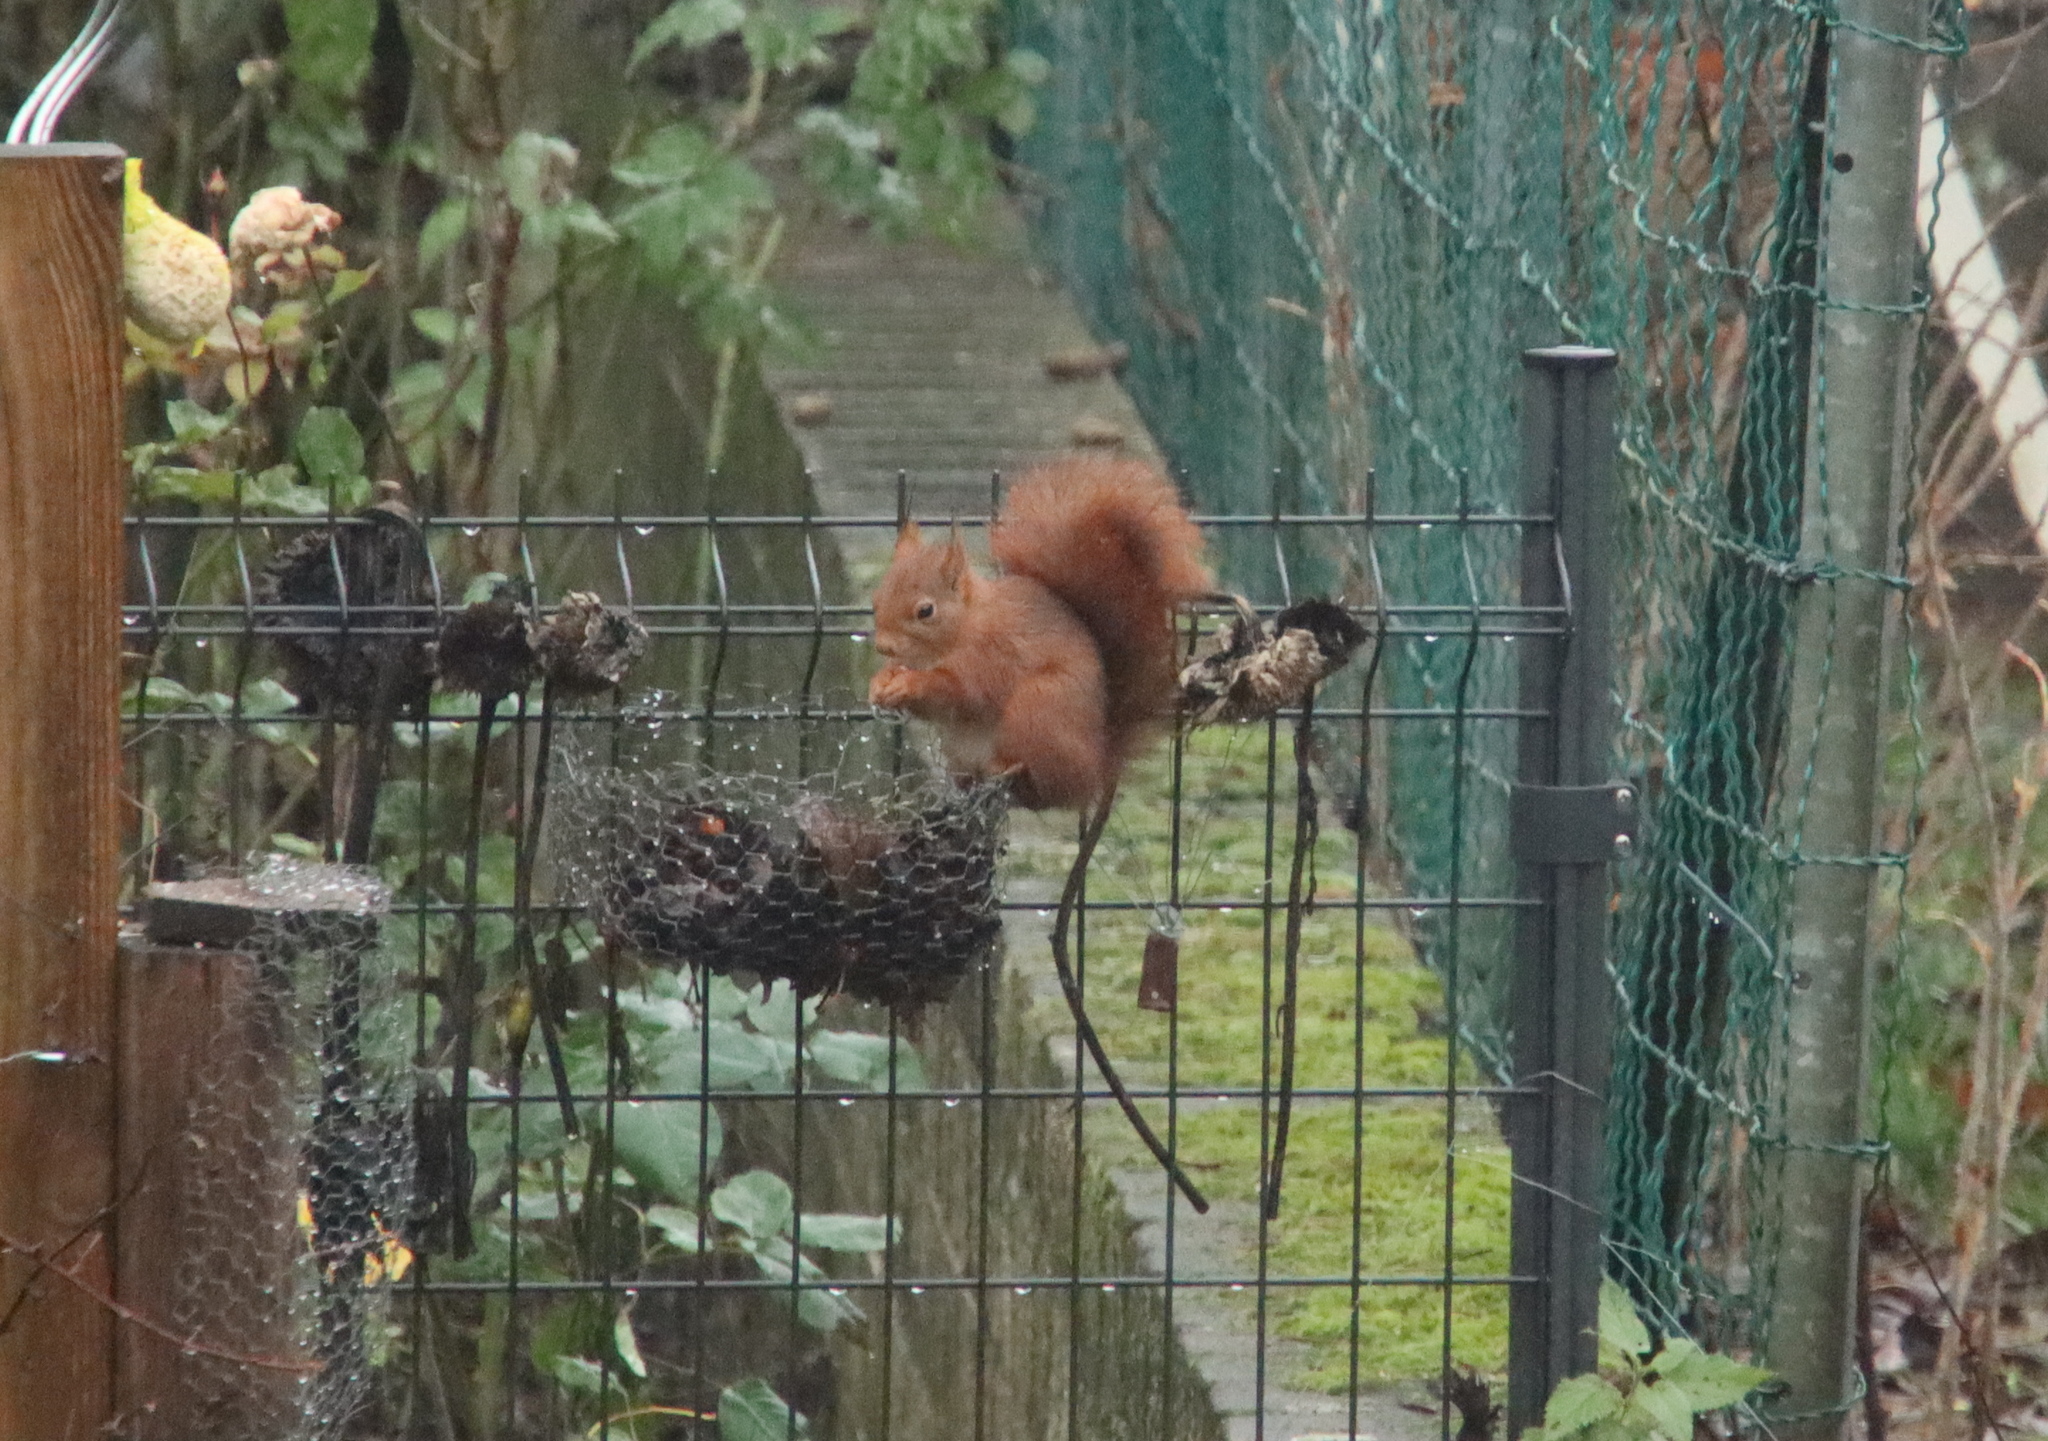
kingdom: Animalia
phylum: Chordata
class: Mammalia
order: Rodentia
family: Sciuridae
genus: Sciurus
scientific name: Sciurus vulgaris
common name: Eurasian red squirrel
